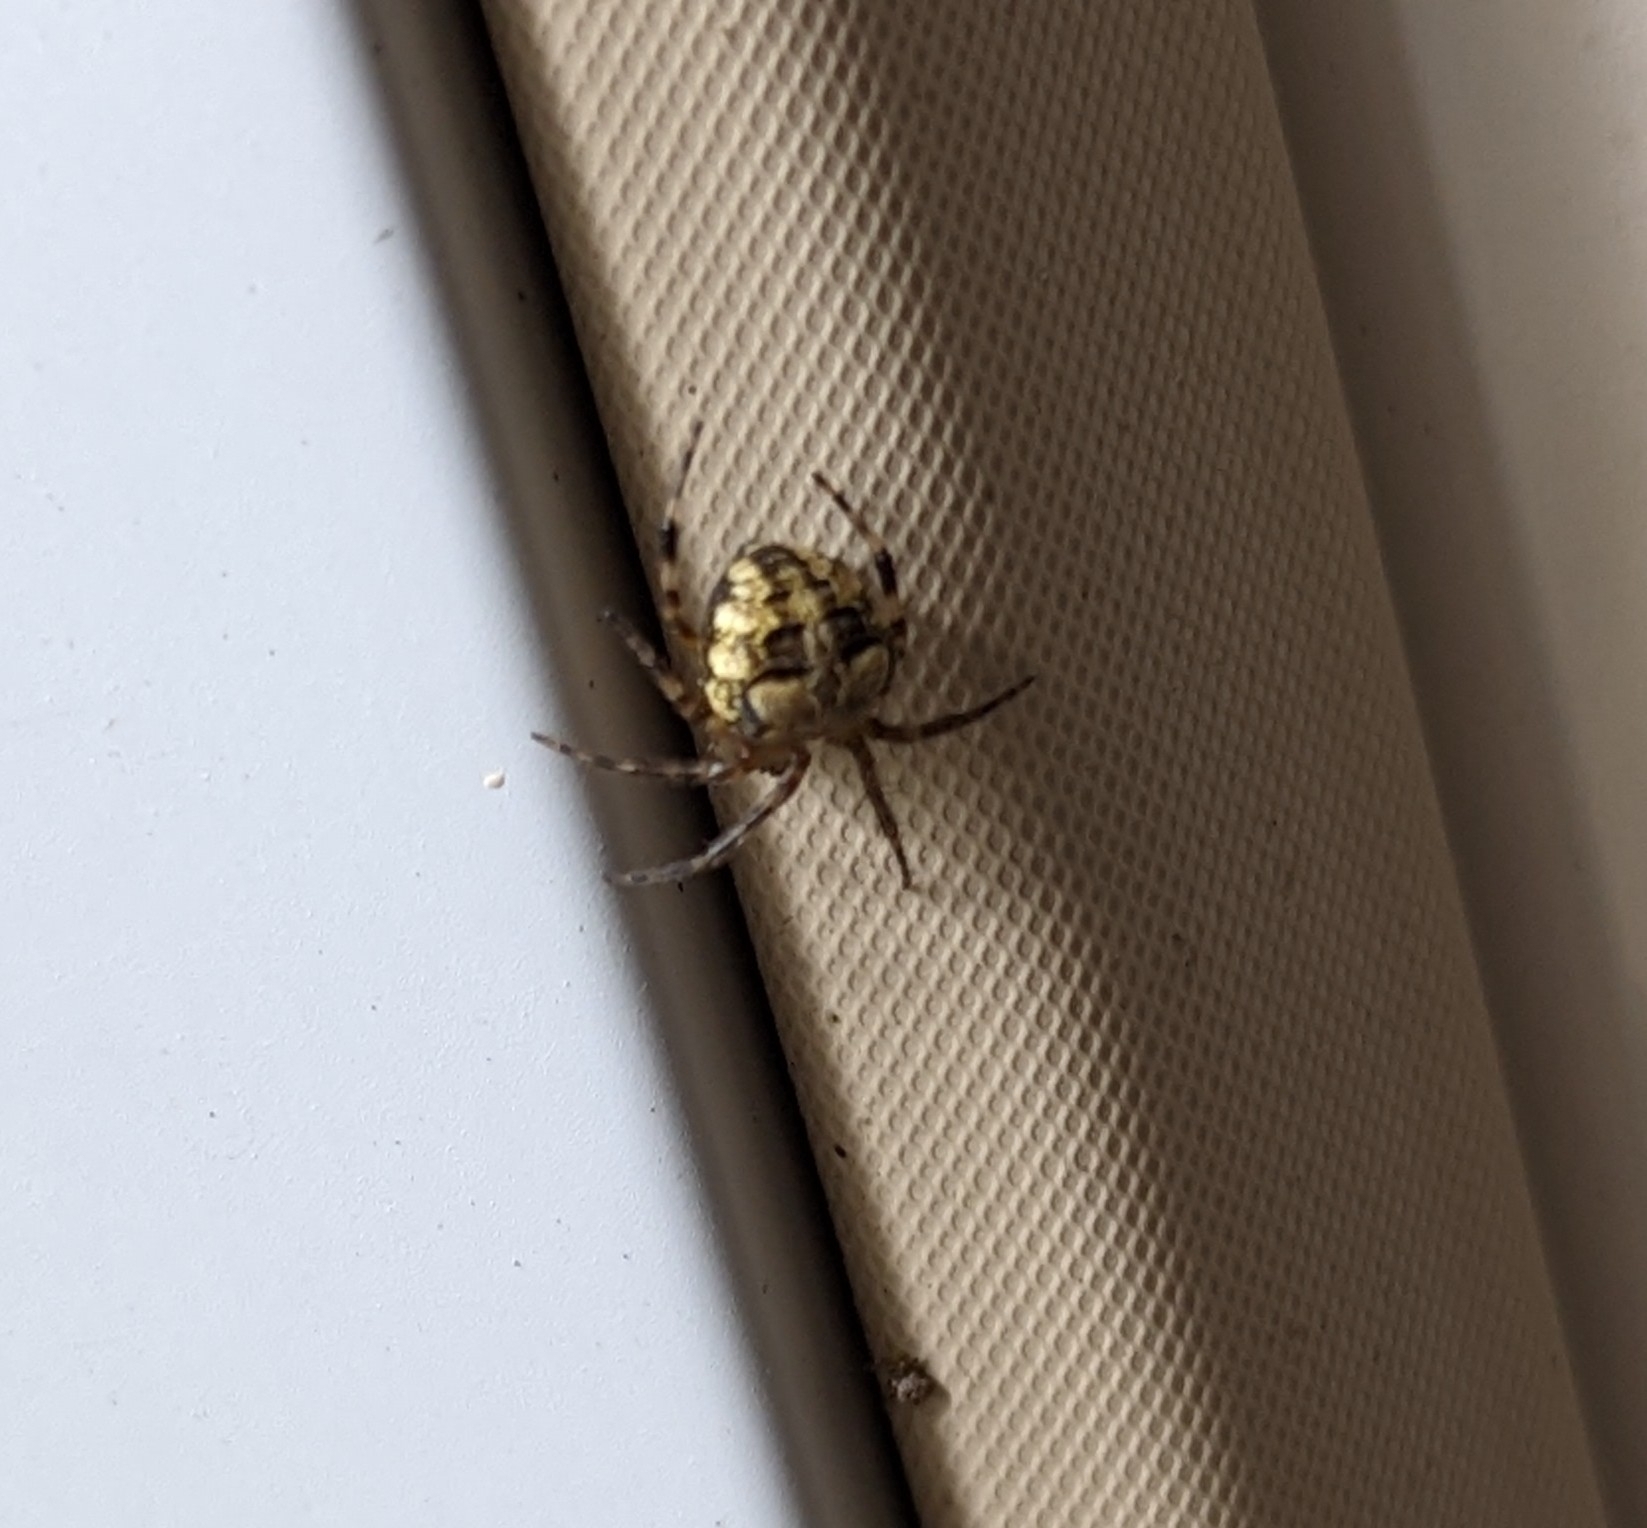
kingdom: Animalia
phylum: Arthropoda
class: Arachnida
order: Araneae
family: Araneidae
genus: Araneus
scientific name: Araneus pegnia
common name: Orb weavers
